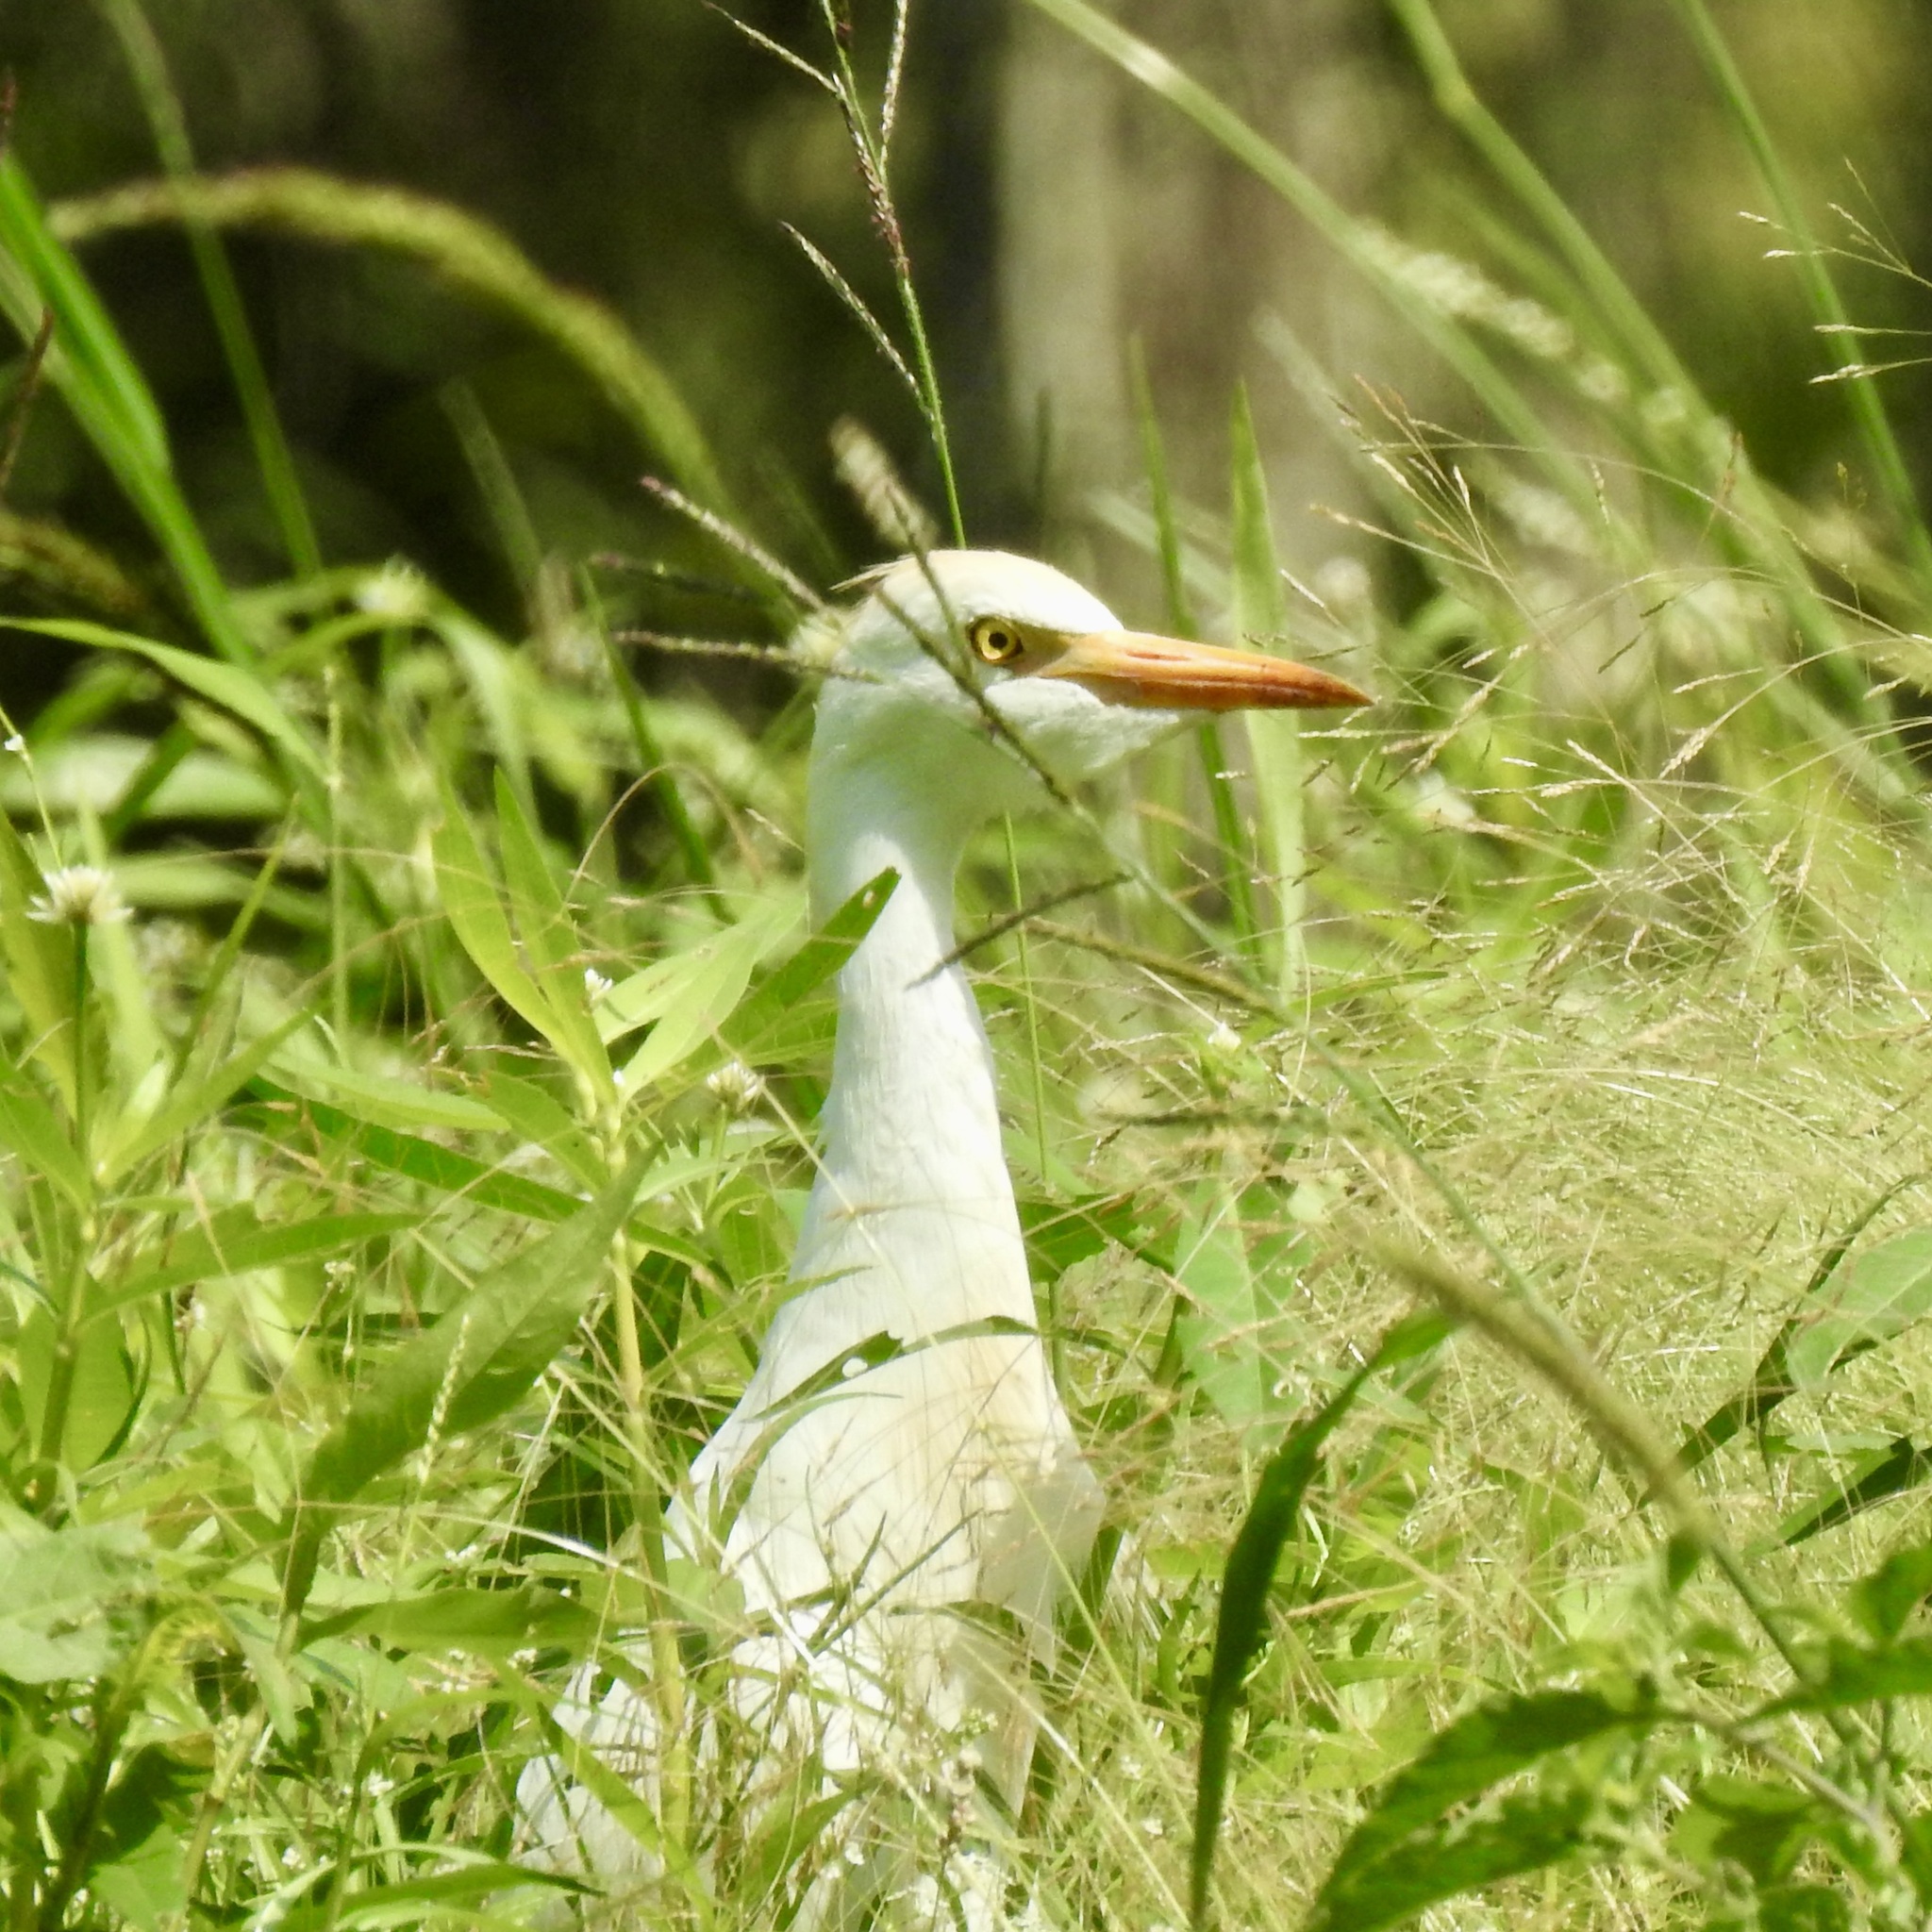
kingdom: Animalia
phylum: Chordata
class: Aves
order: Pelecaniformes
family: Ardeidae
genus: Bubulcus
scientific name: Bubulcus ibis
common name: Cattle egret
